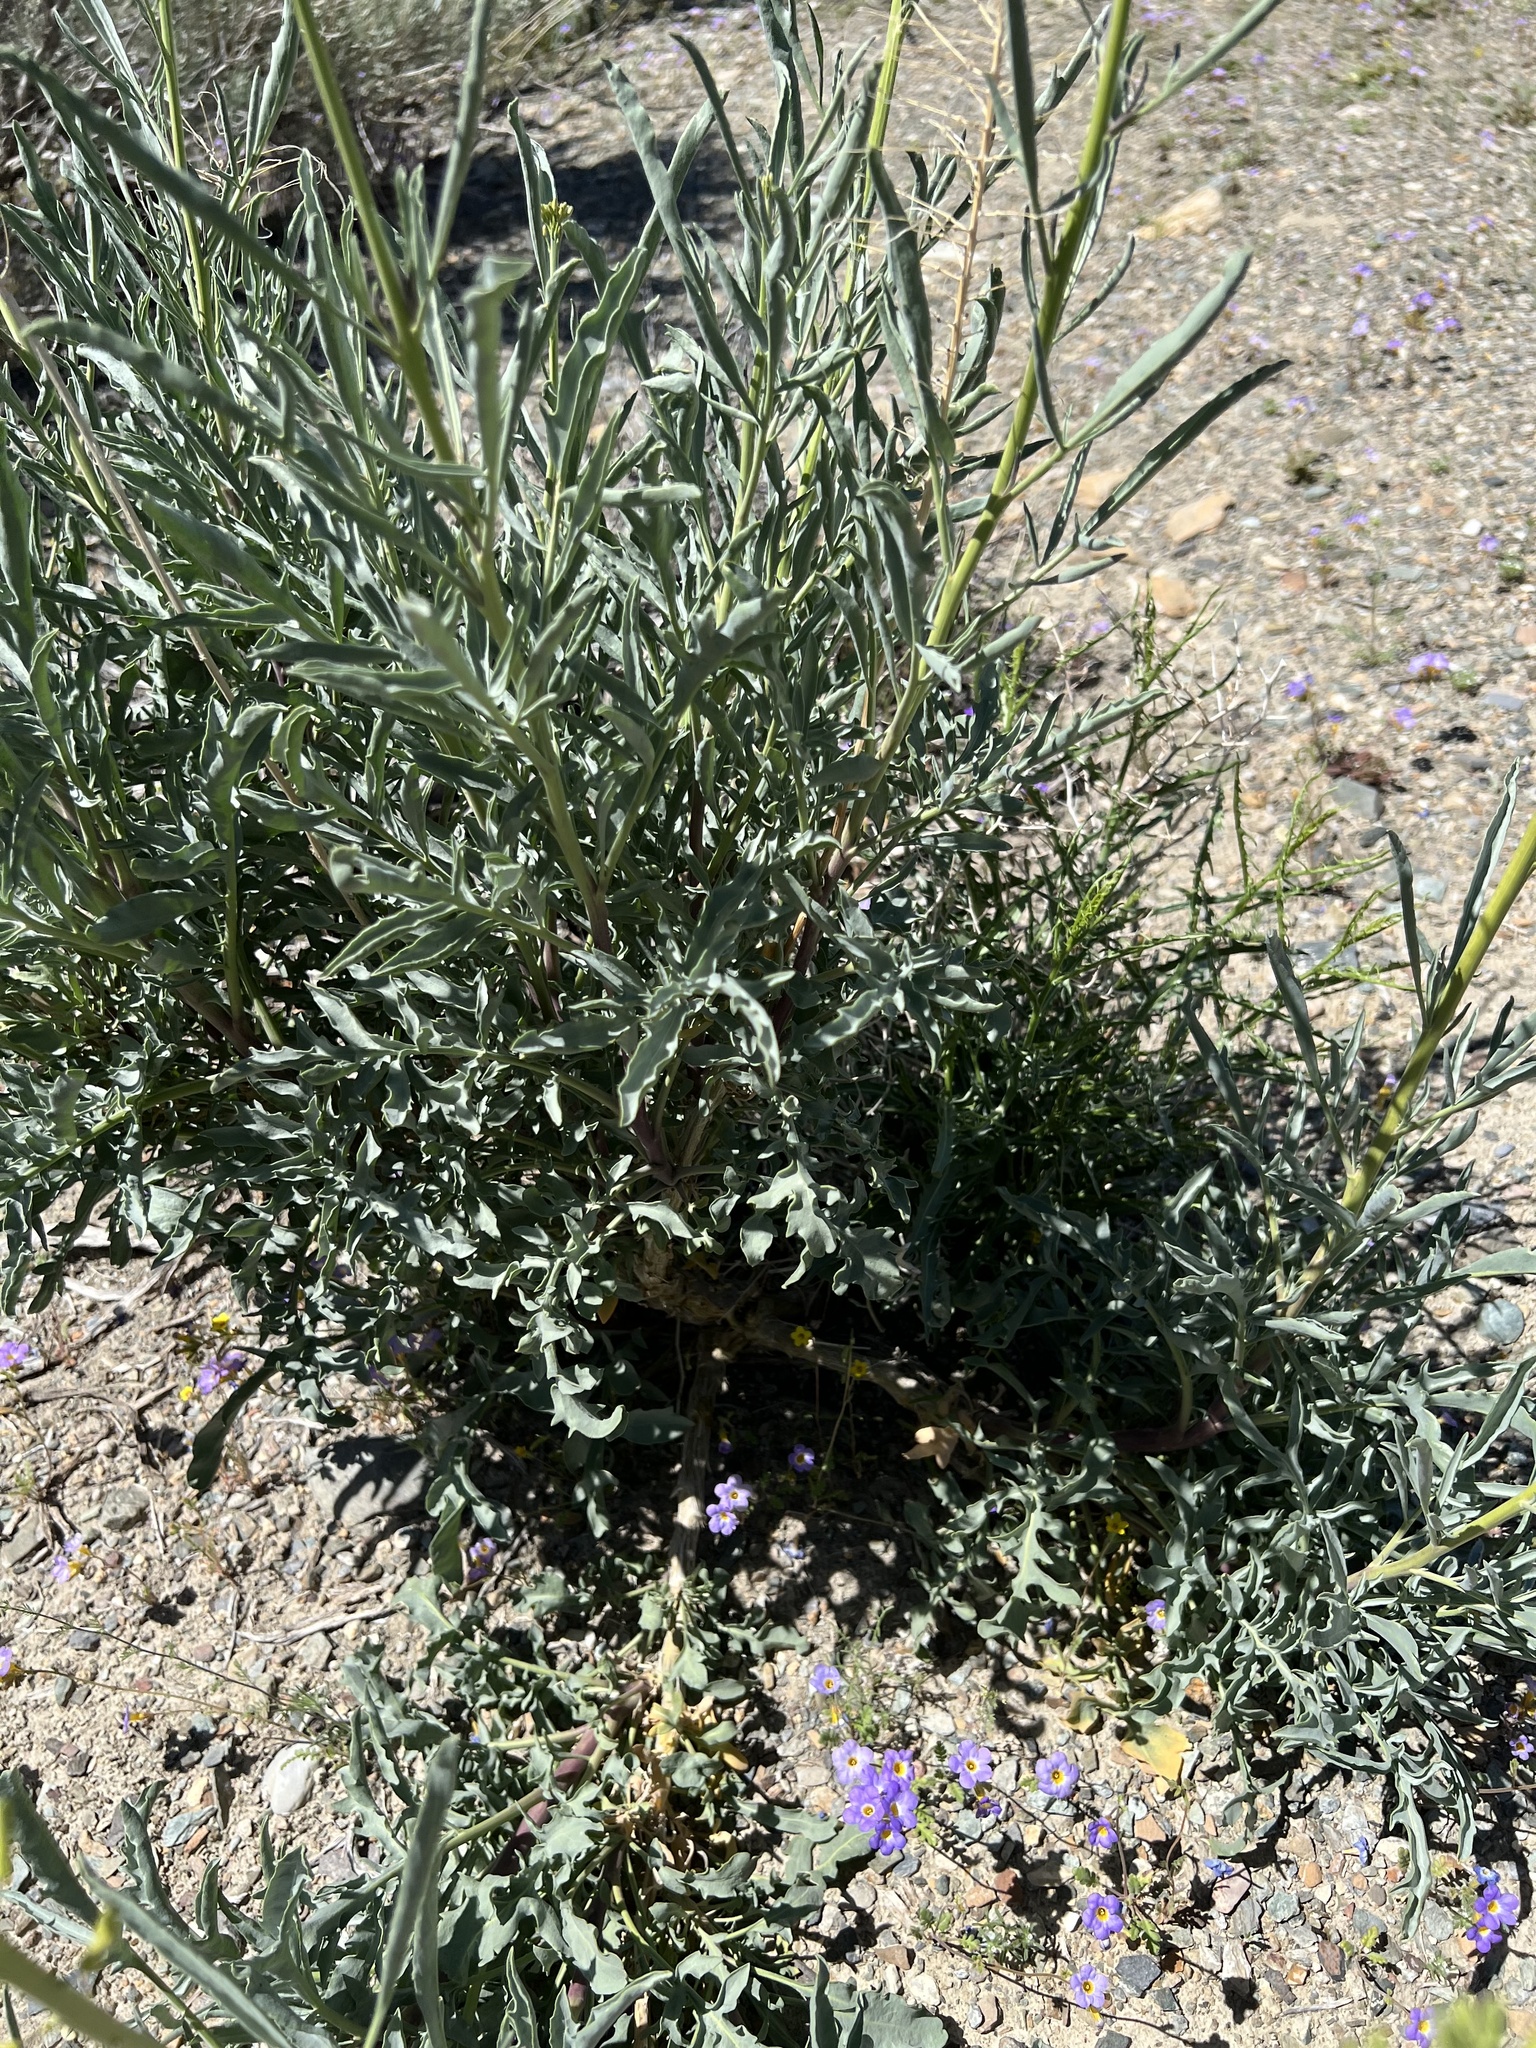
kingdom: Plantae
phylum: Tracheophyta
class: Magnoliopsida
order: Brassicales
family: Brassicaceae
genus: Stanleya
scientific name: Stanleya pinnata
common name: Prince's-plume
